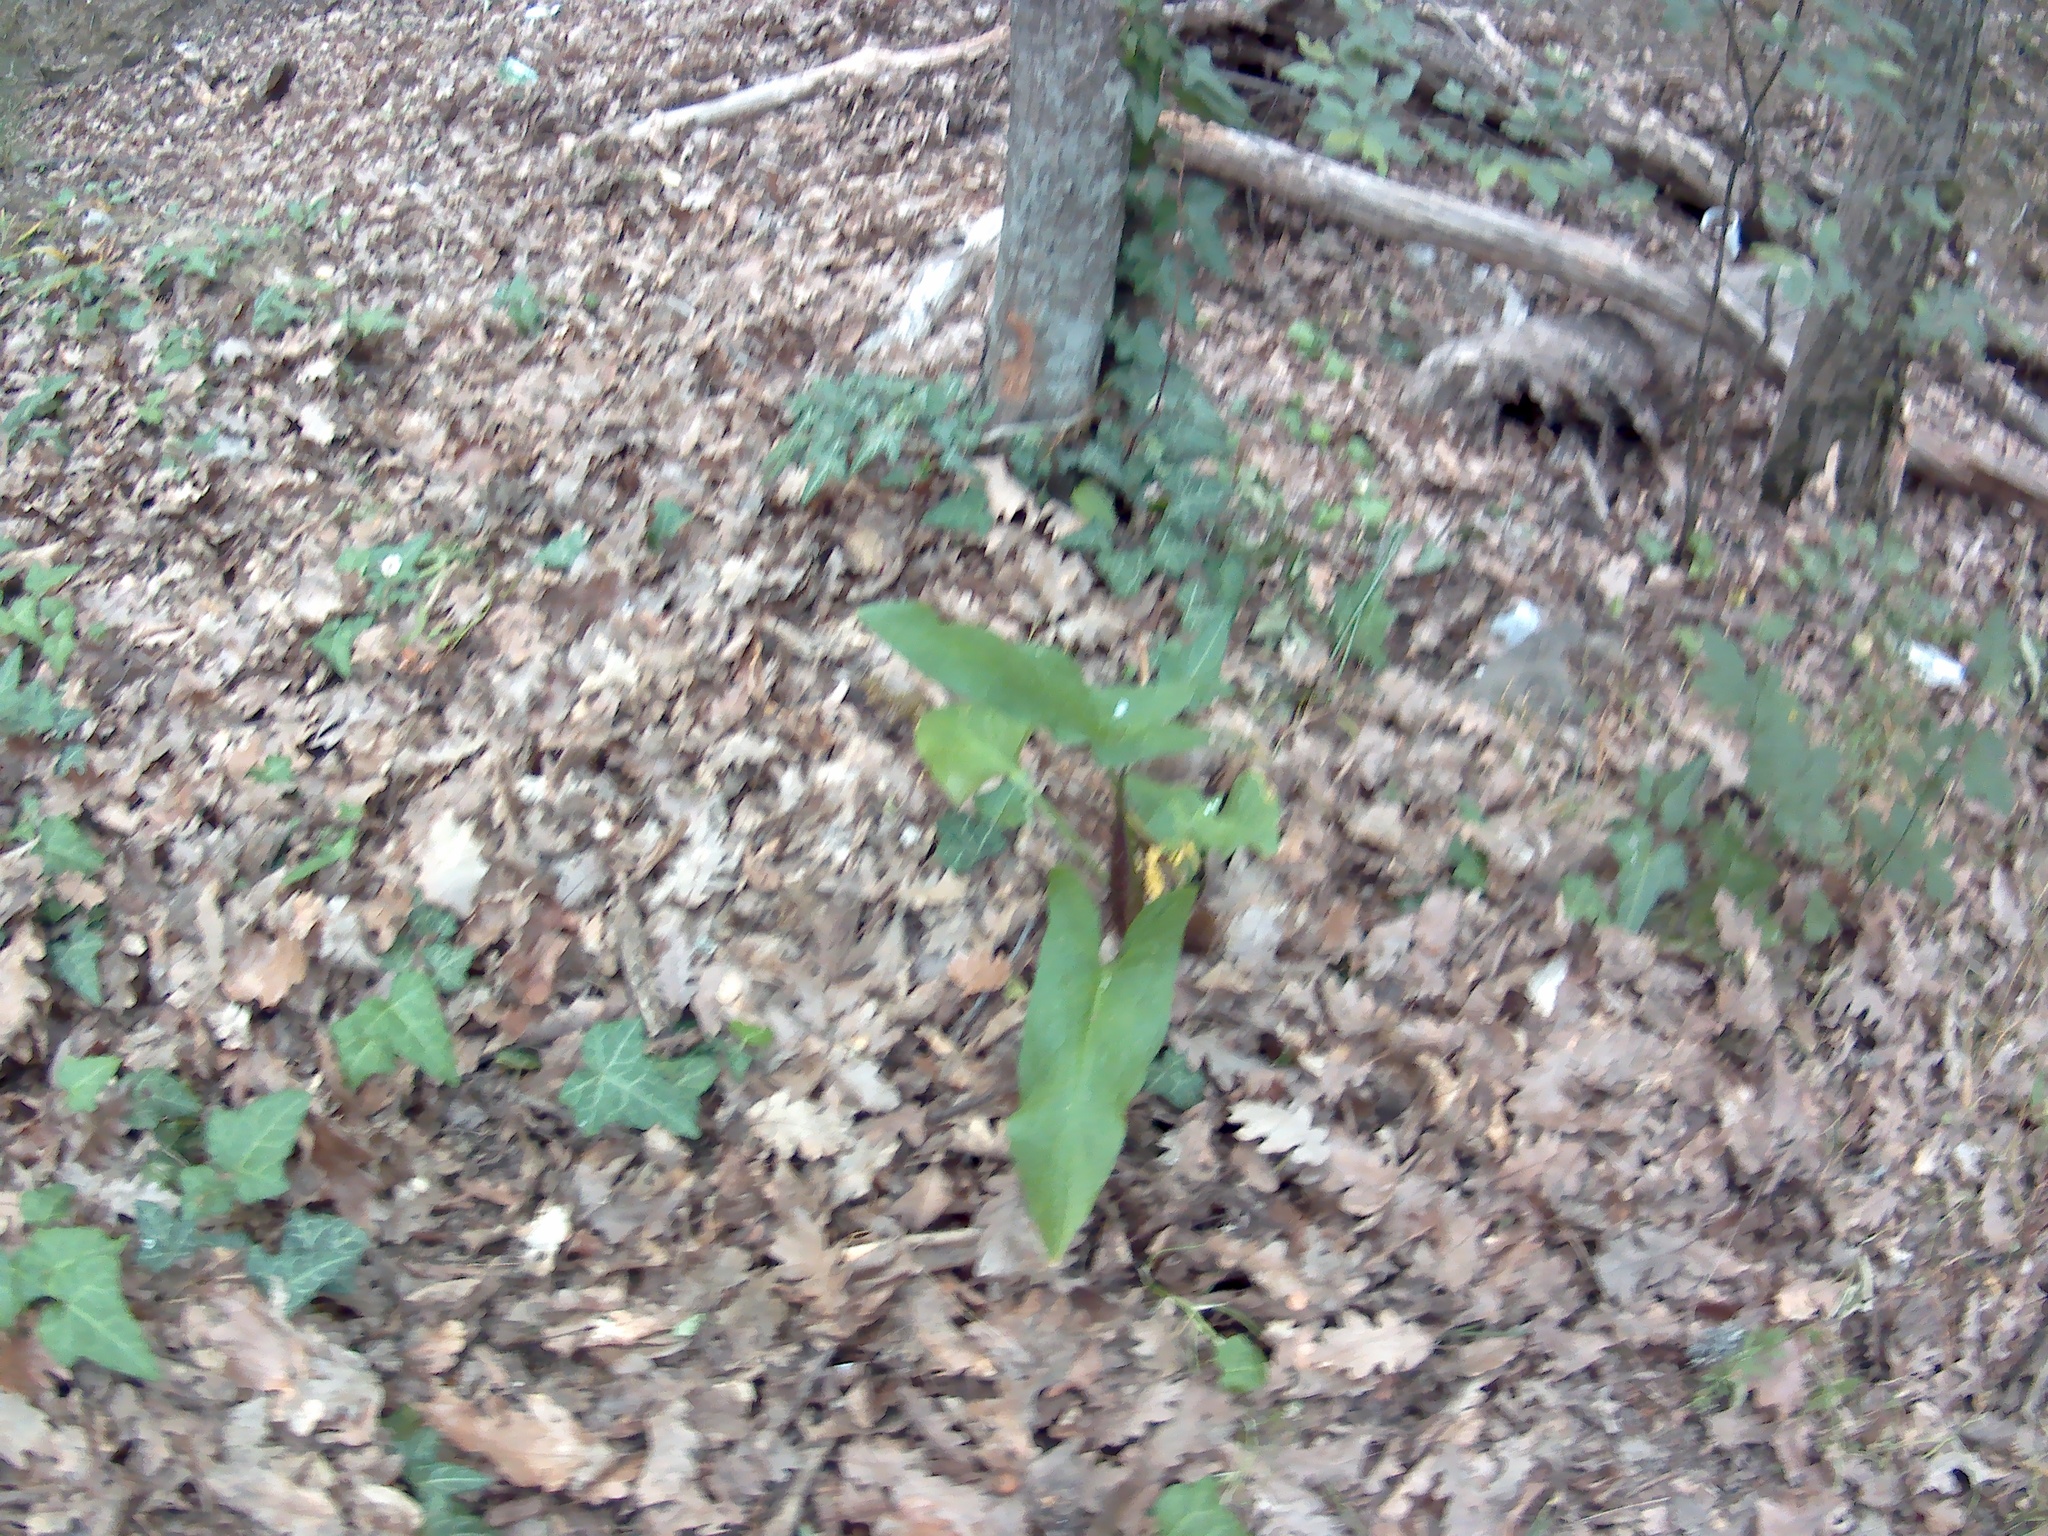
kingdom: Plantae
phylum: Tracheophyta
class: Liliopsida
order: Alismatales
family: Araceae
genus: Arum
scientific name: Arum orientale
